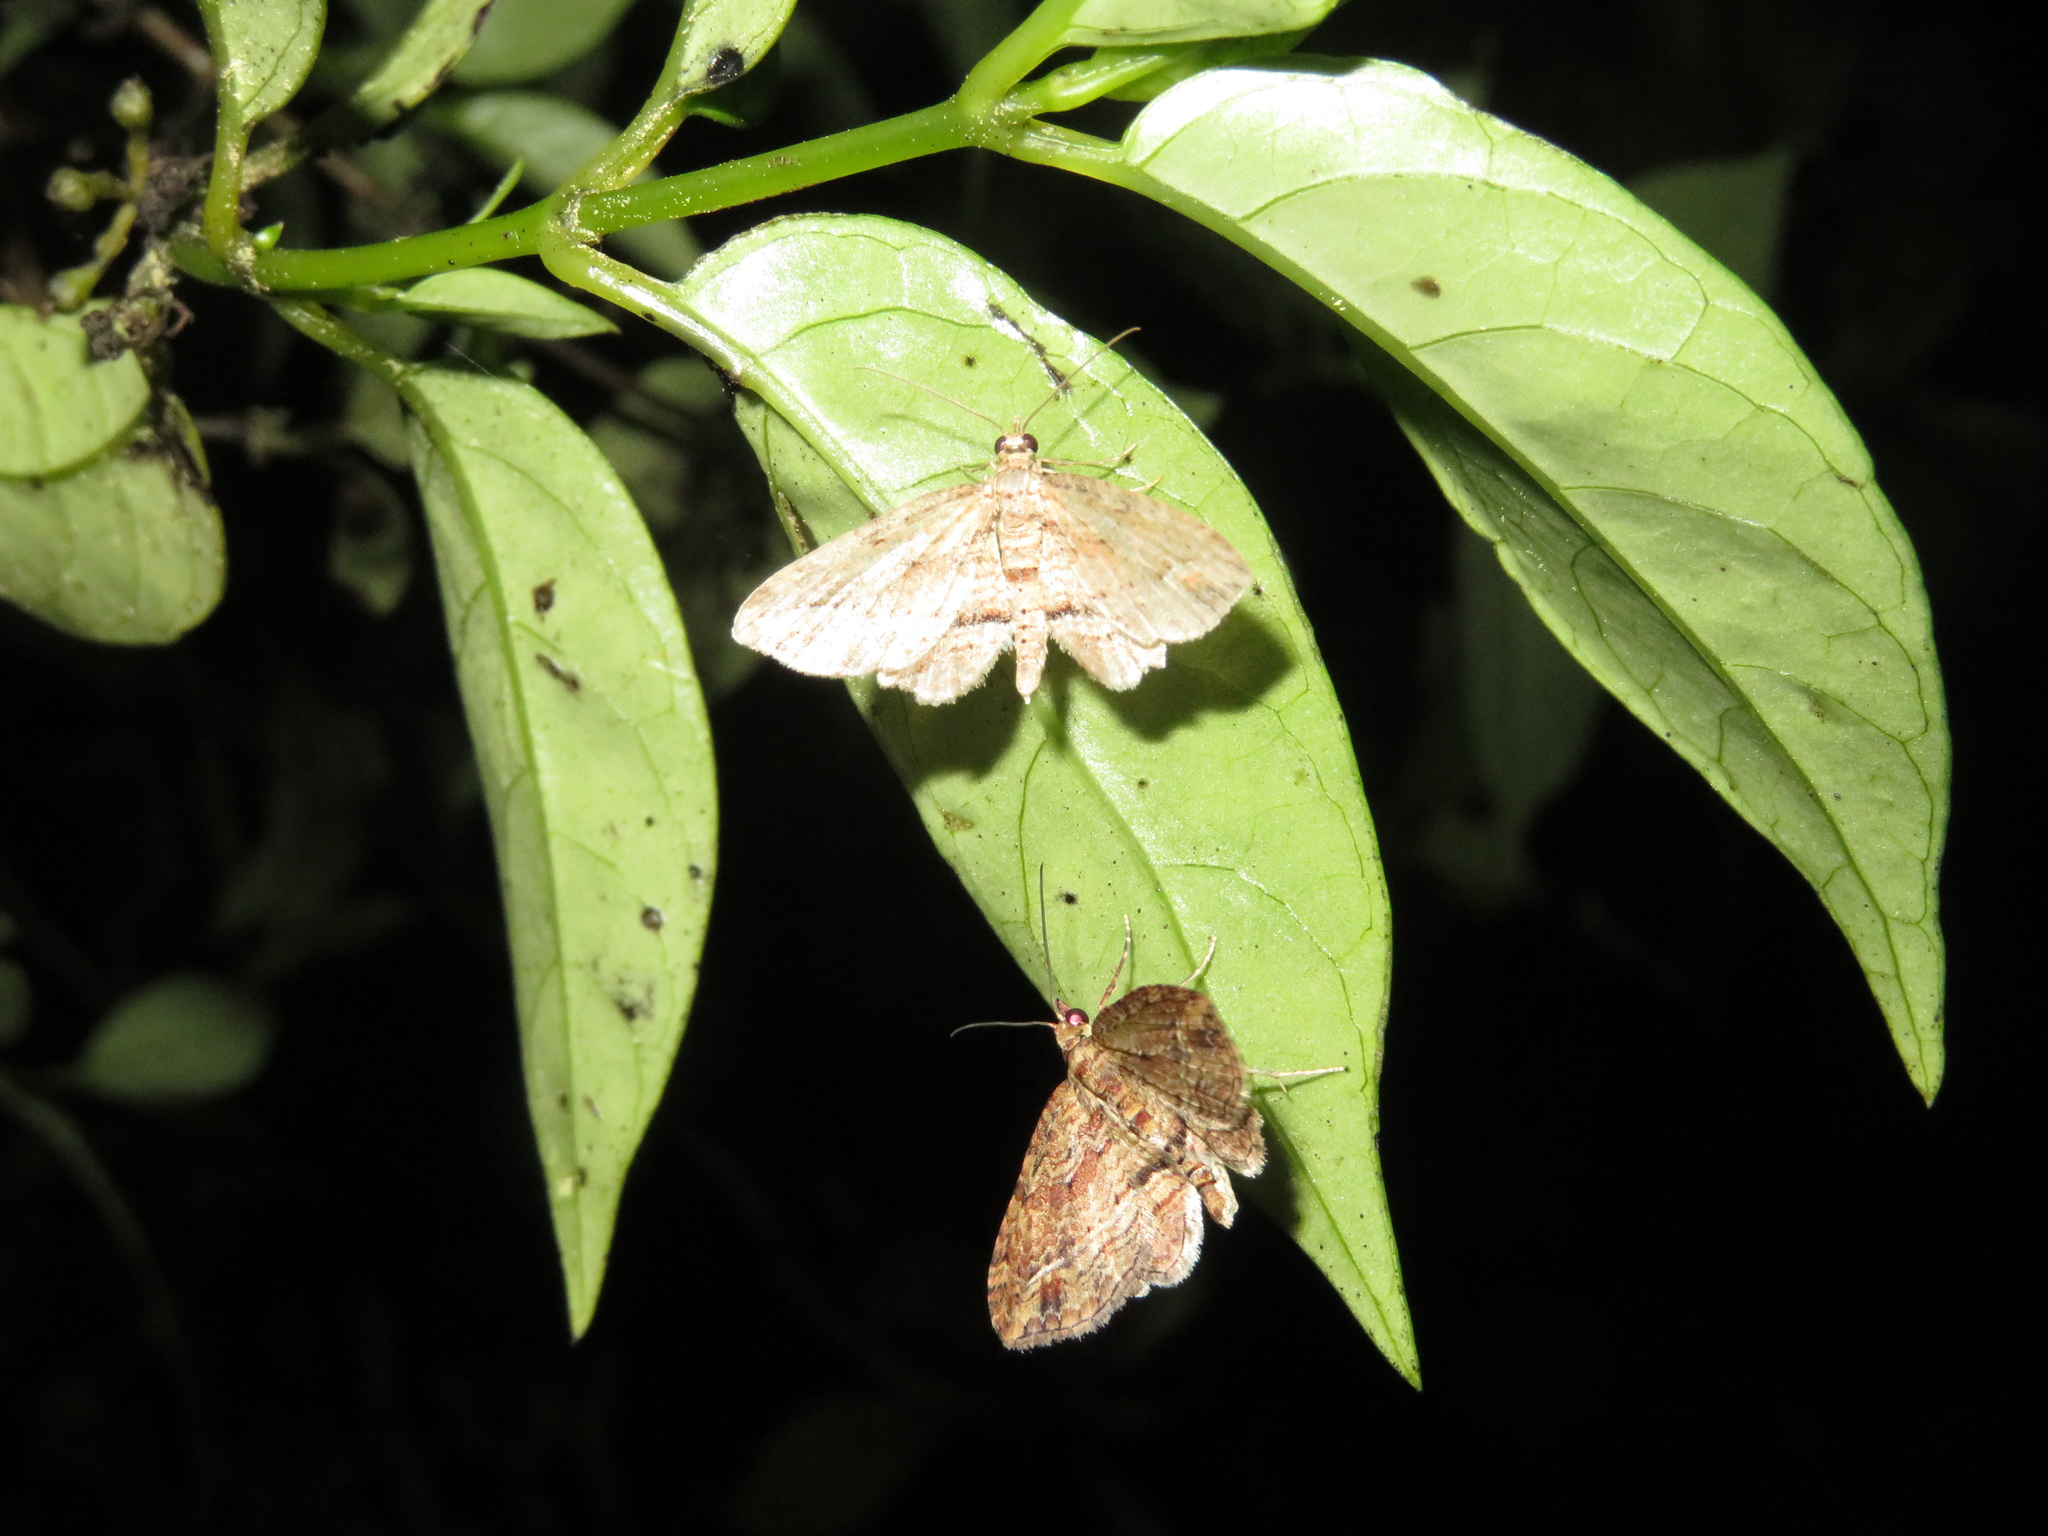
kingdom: Animalia
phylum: Arthropoda
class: Insecta
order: Lepidoptera
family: Geometridae
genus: Chloroclystis
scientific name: Chloroclystis filata
